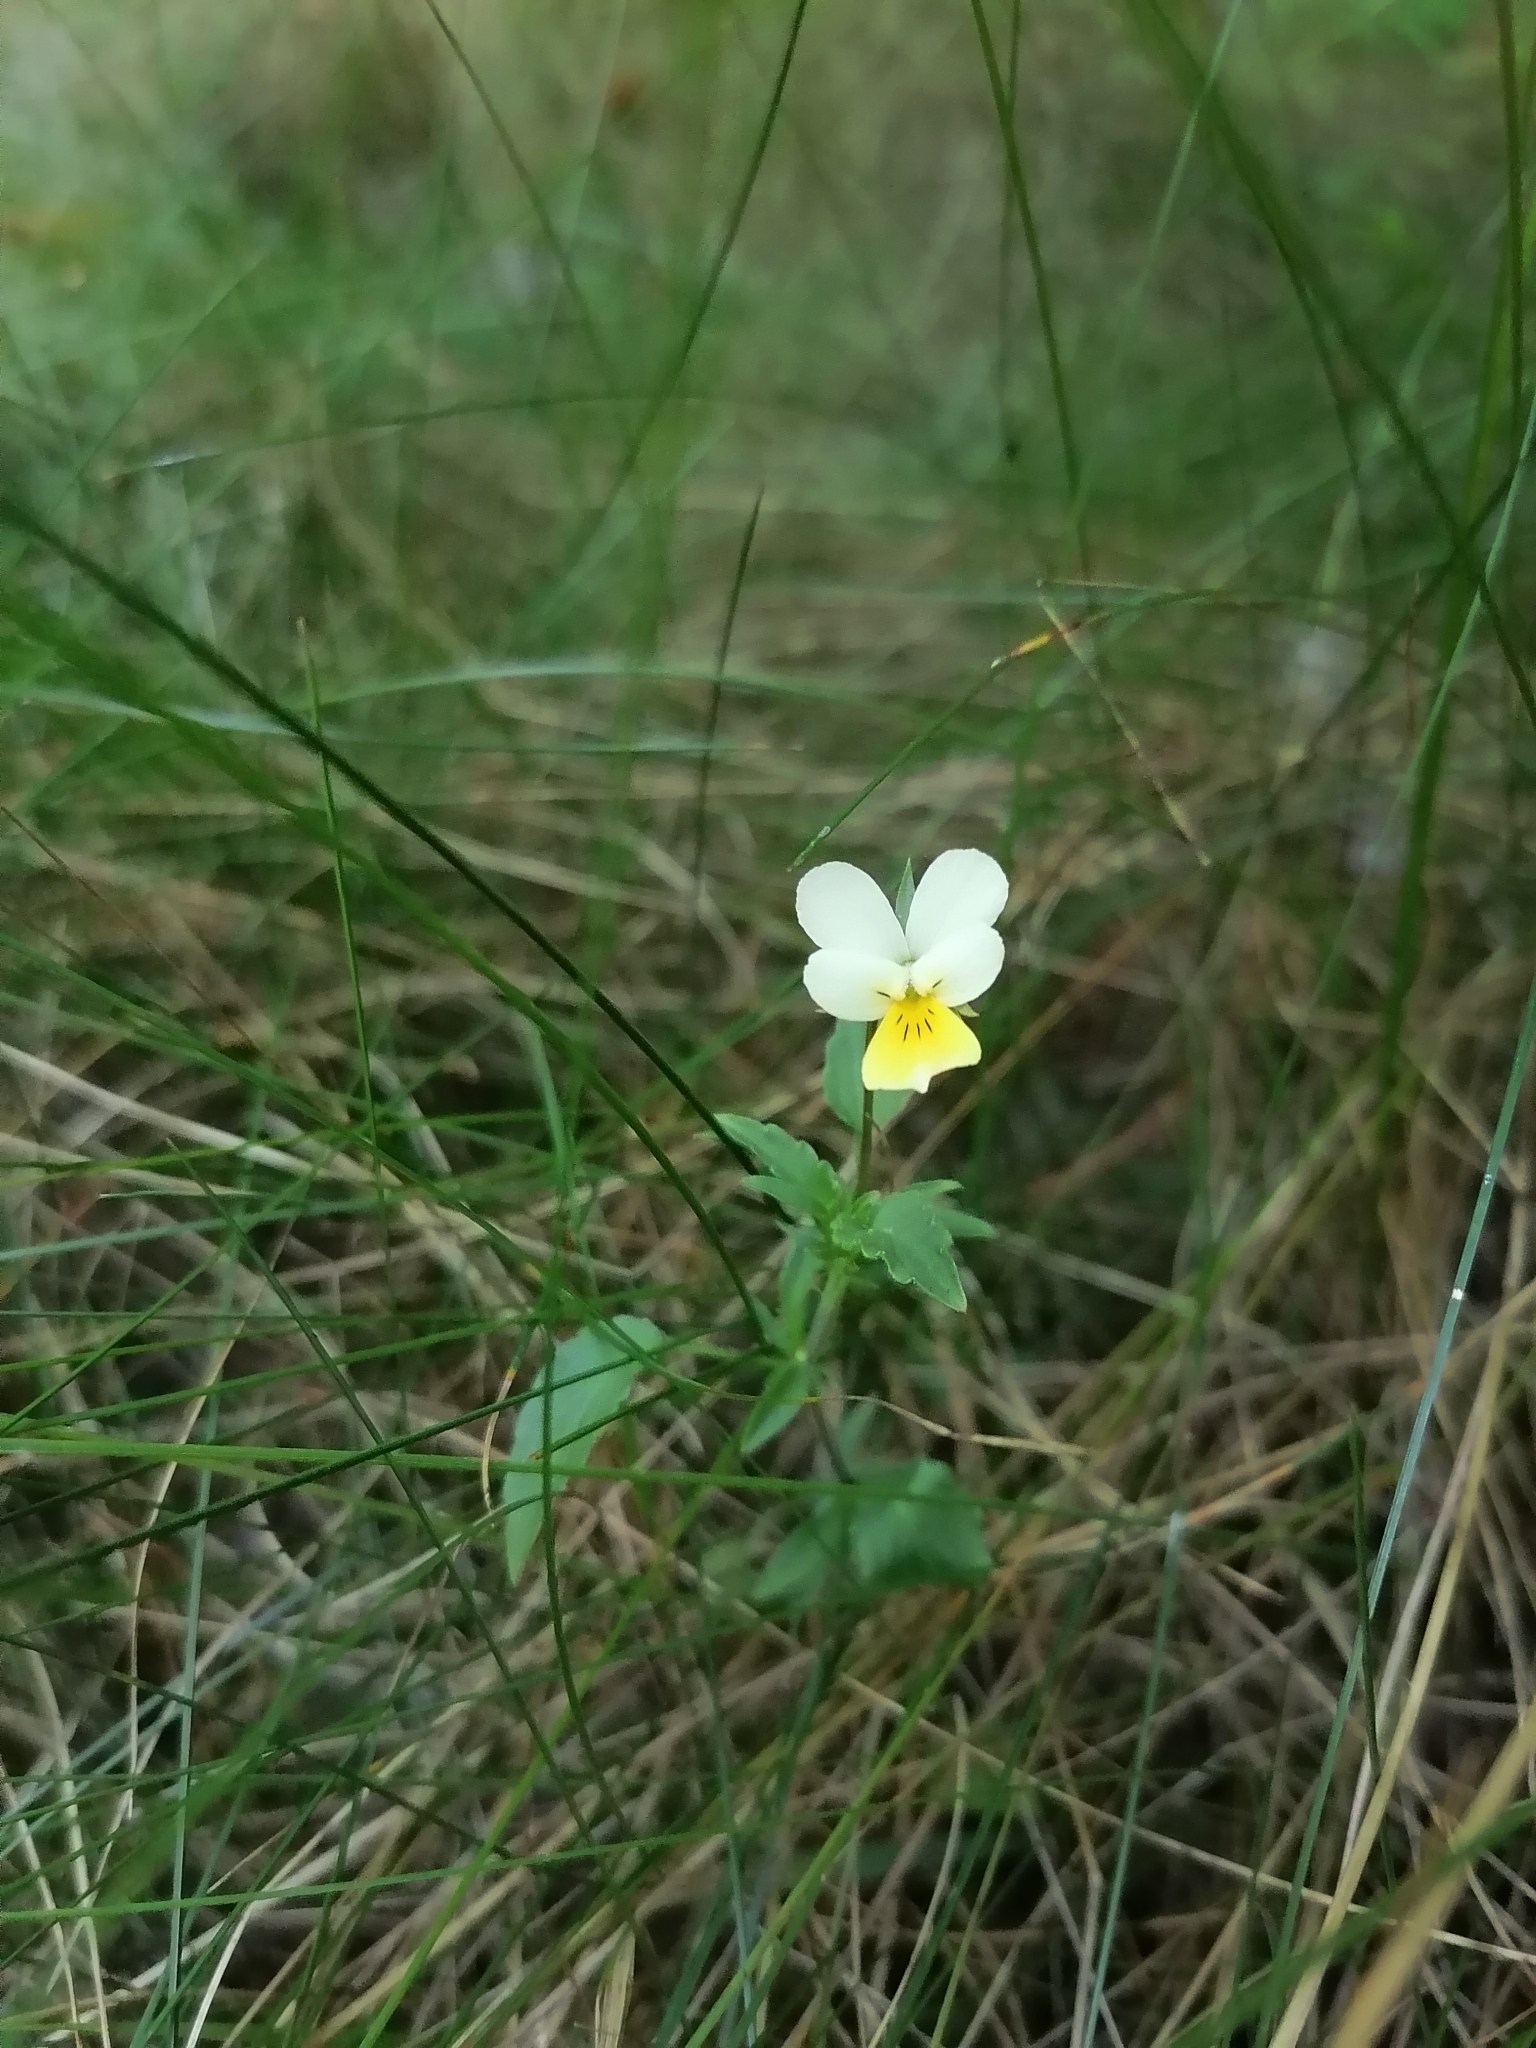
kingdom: Plantae
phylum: Tracheophyta
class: Magnoliopsida
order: Malpighiales
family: Violaceae
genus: Viola
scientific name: Viola arvensis
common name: Field pansy
